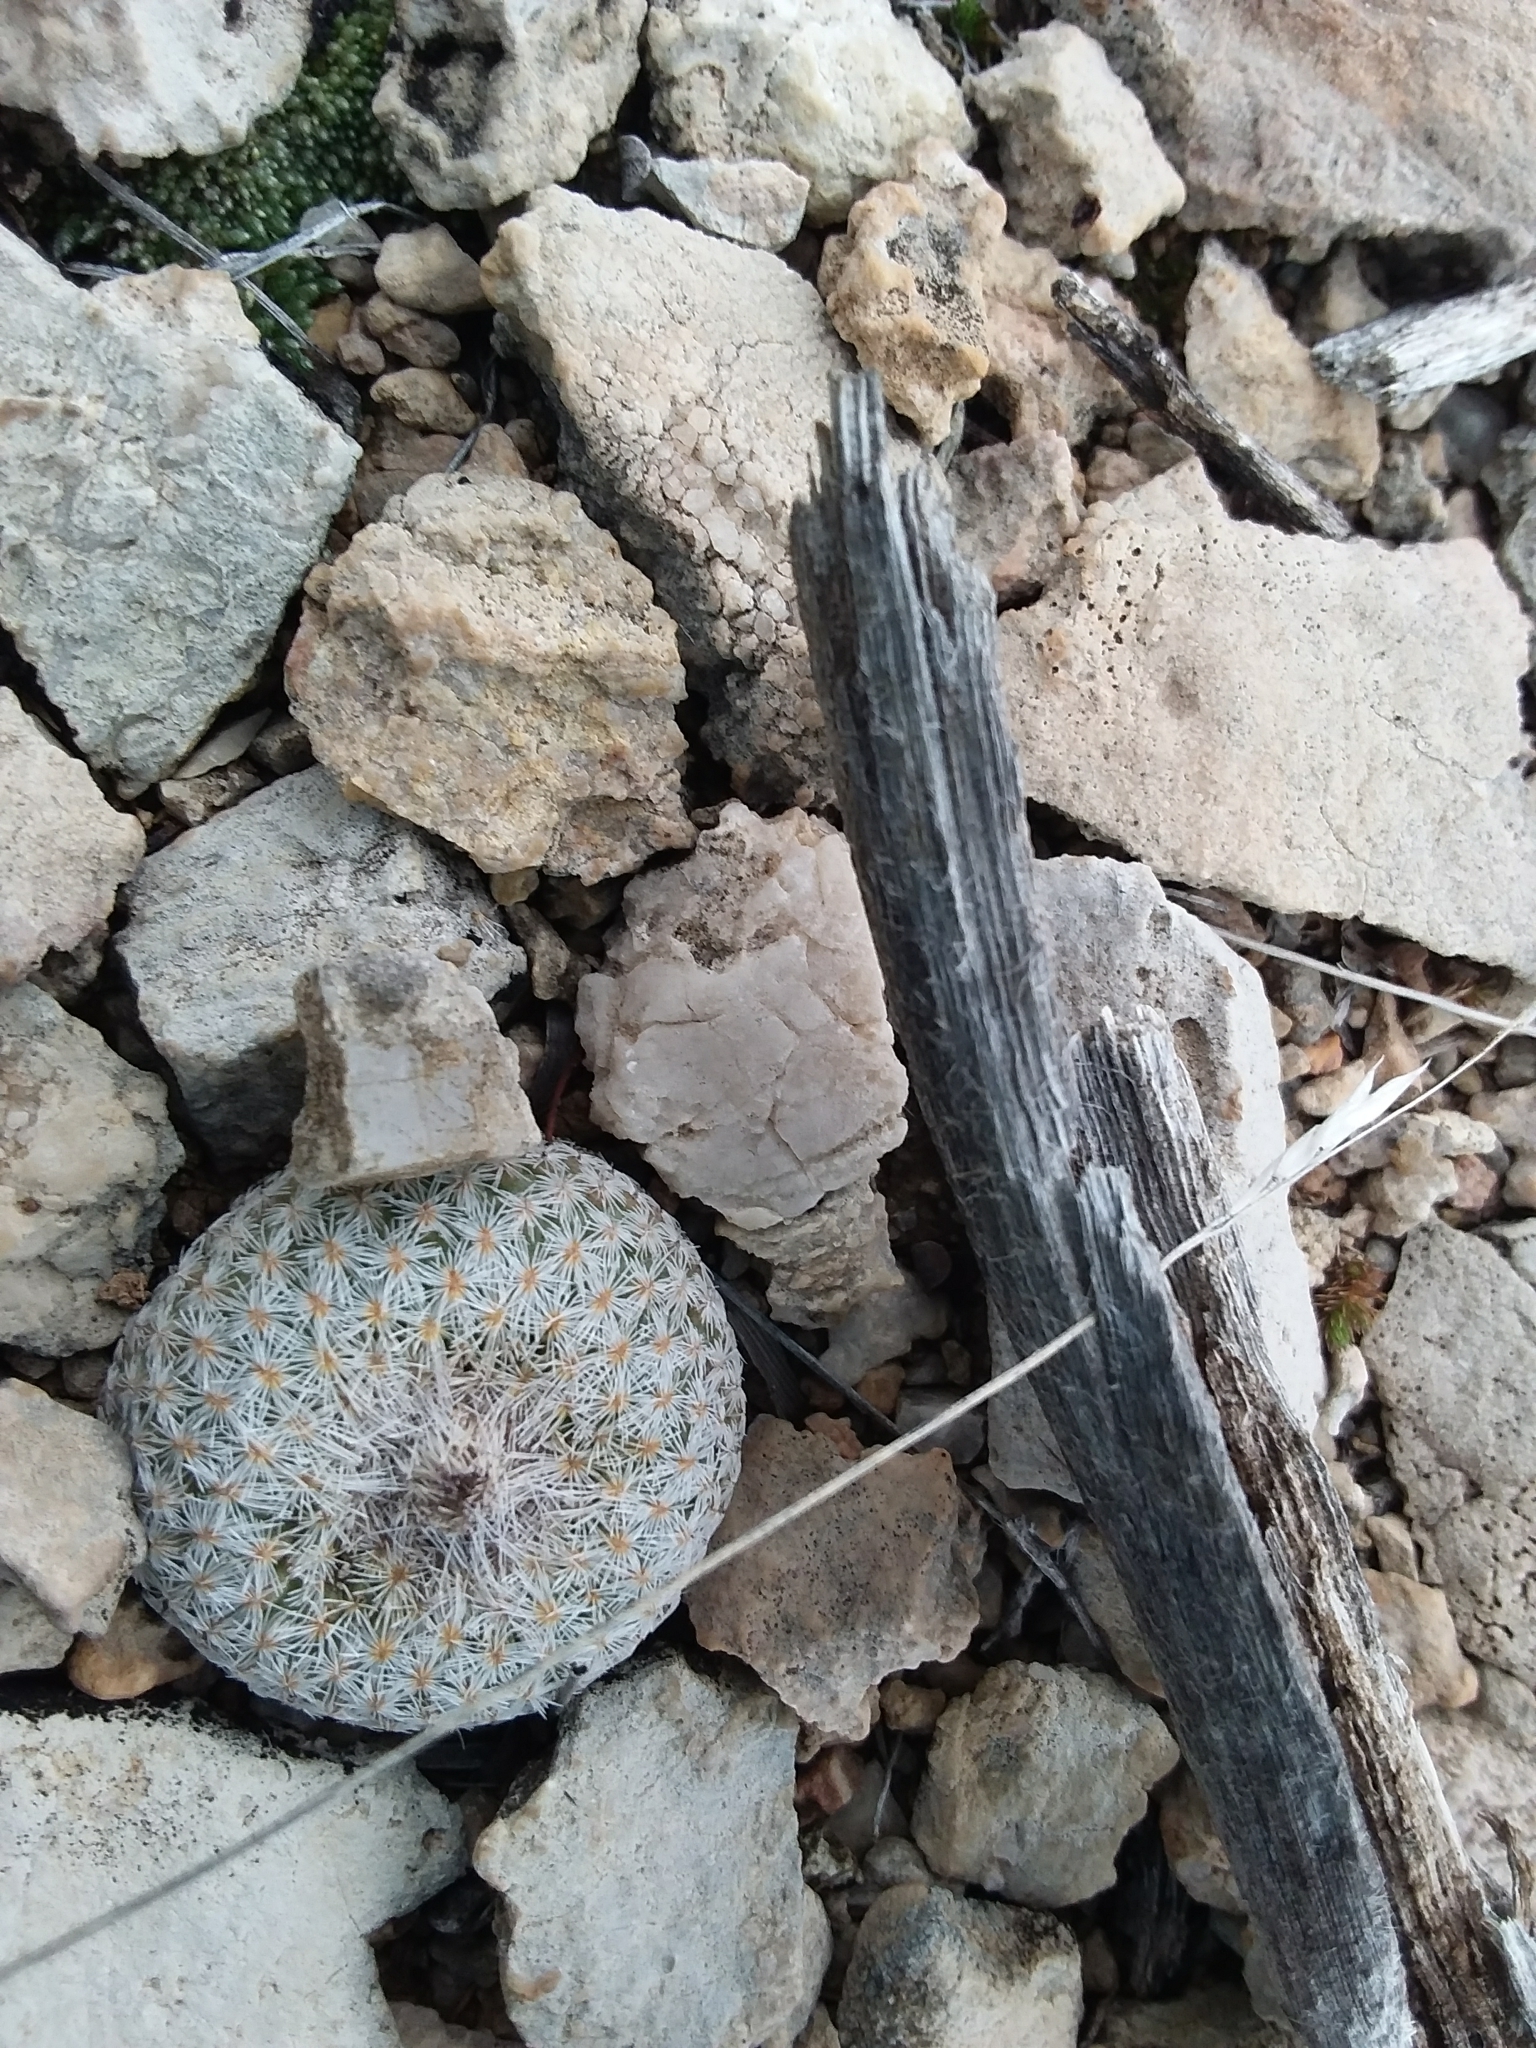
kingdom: Plantae
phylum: Tracheophyta
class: Magnoliopsida
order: Caryophyllales
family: Cactaceae
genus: Epithelantha
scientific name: Epithelantha micromeris
